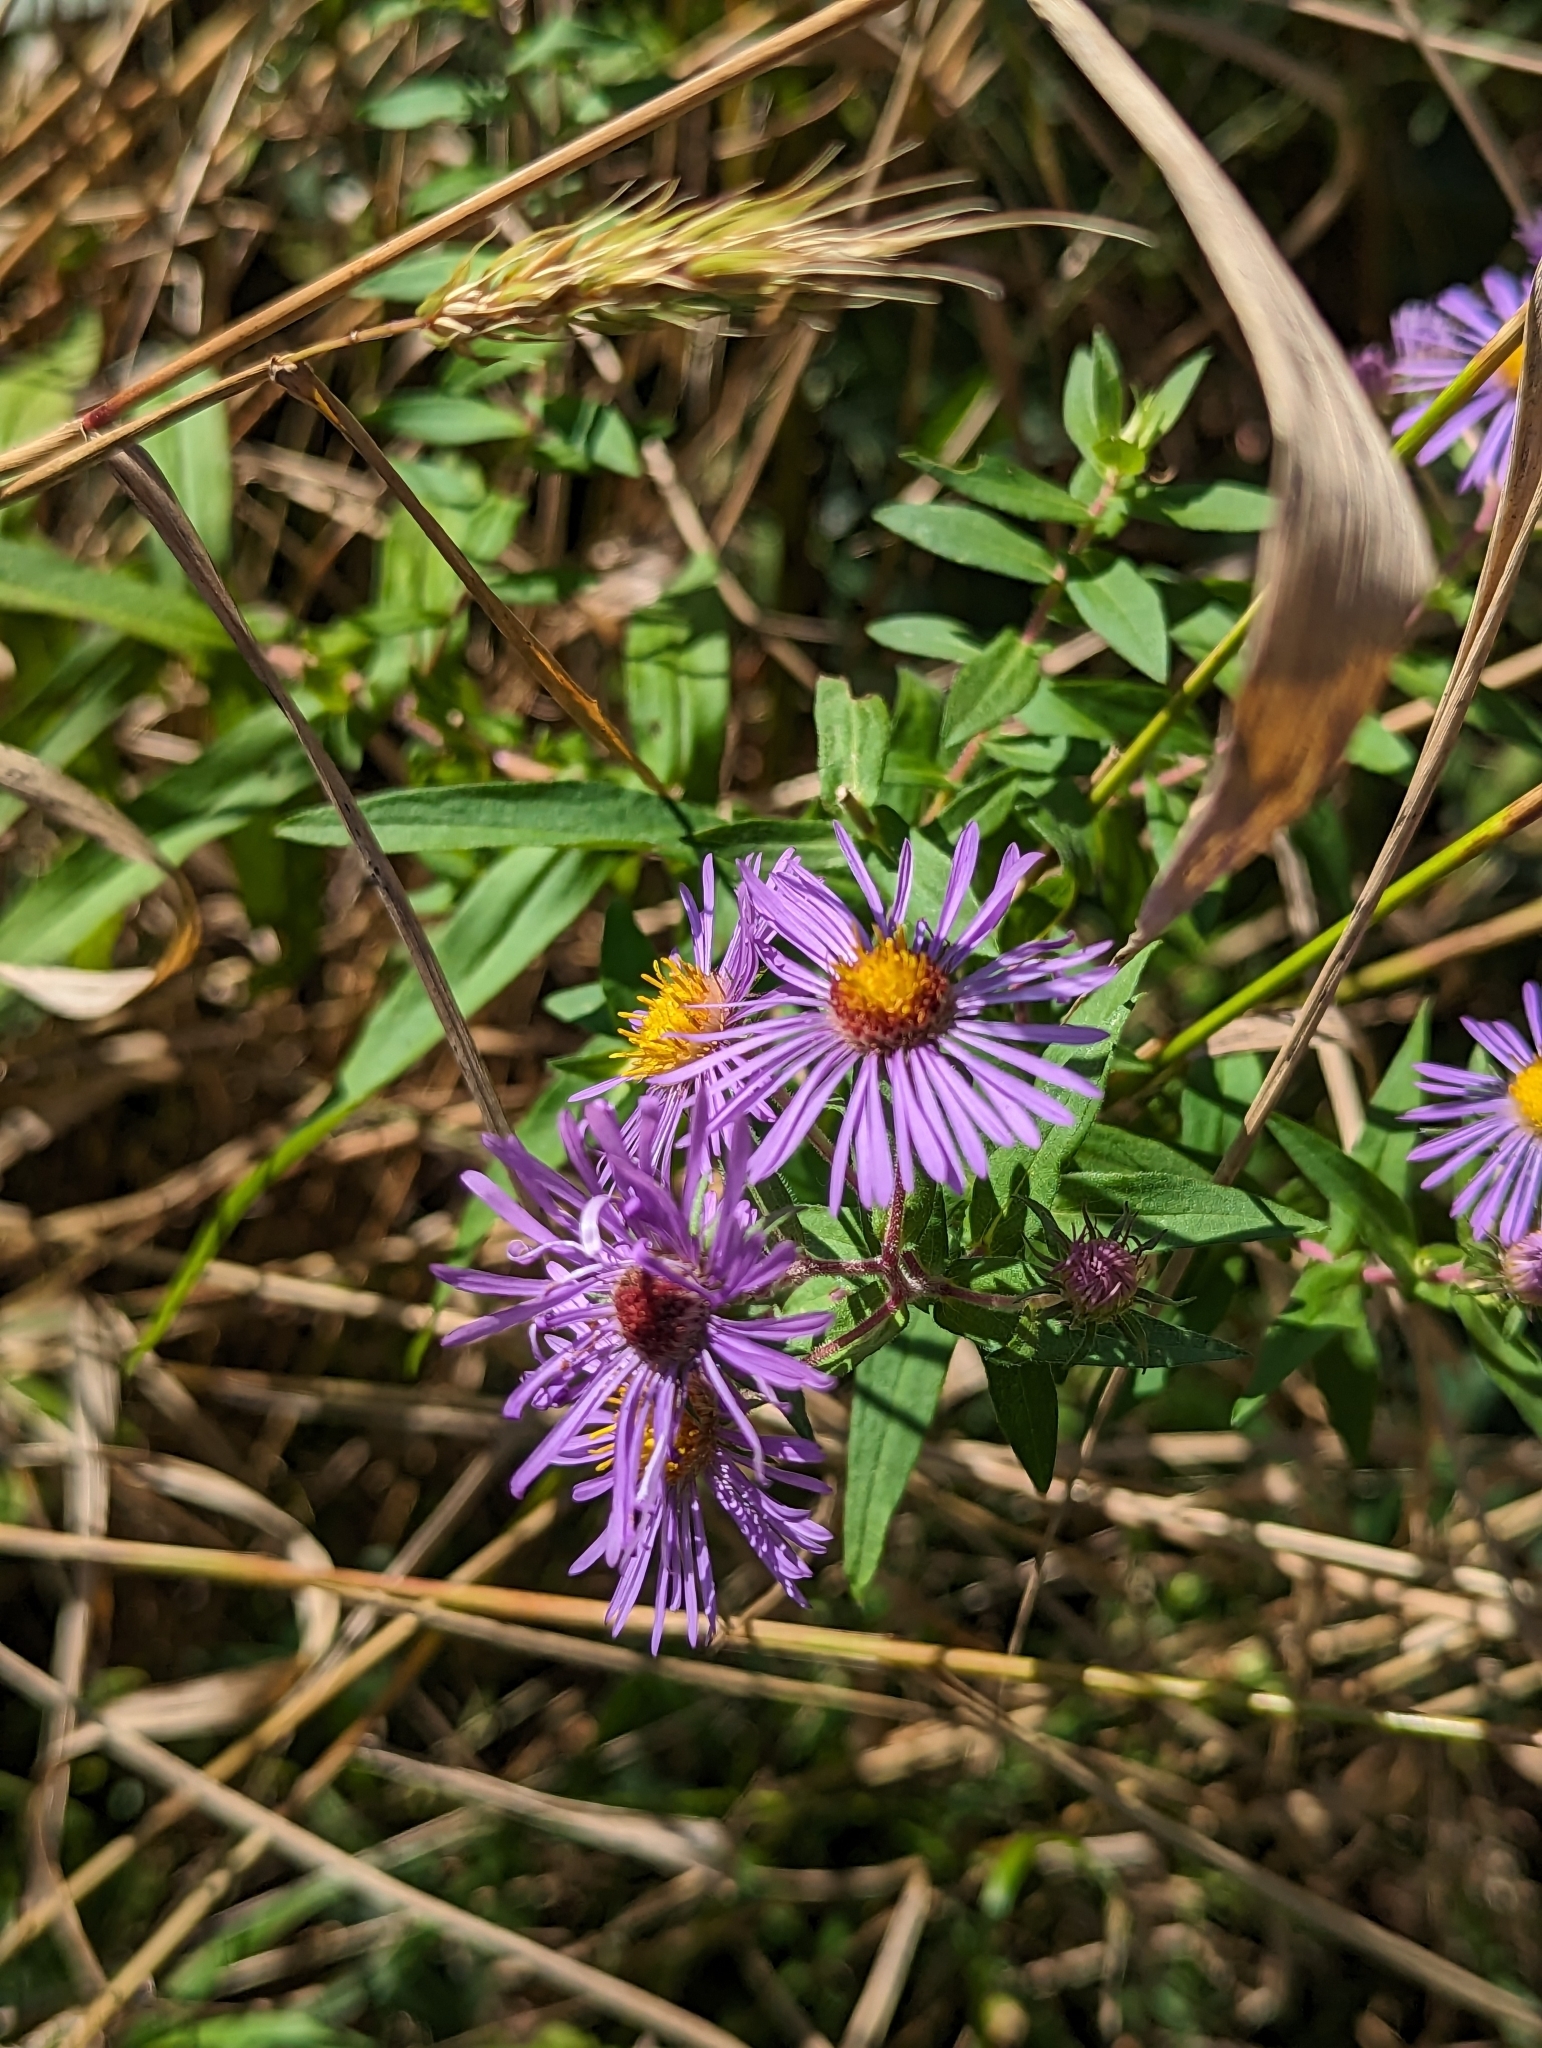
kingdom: Plantae
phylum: Tracheophyta
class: Magnoliopsida
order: Asterales
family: Asteraceae
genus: Symphyotrichum
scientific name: Symphyotrichum novae-angliae
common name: Michaelmas daisy
